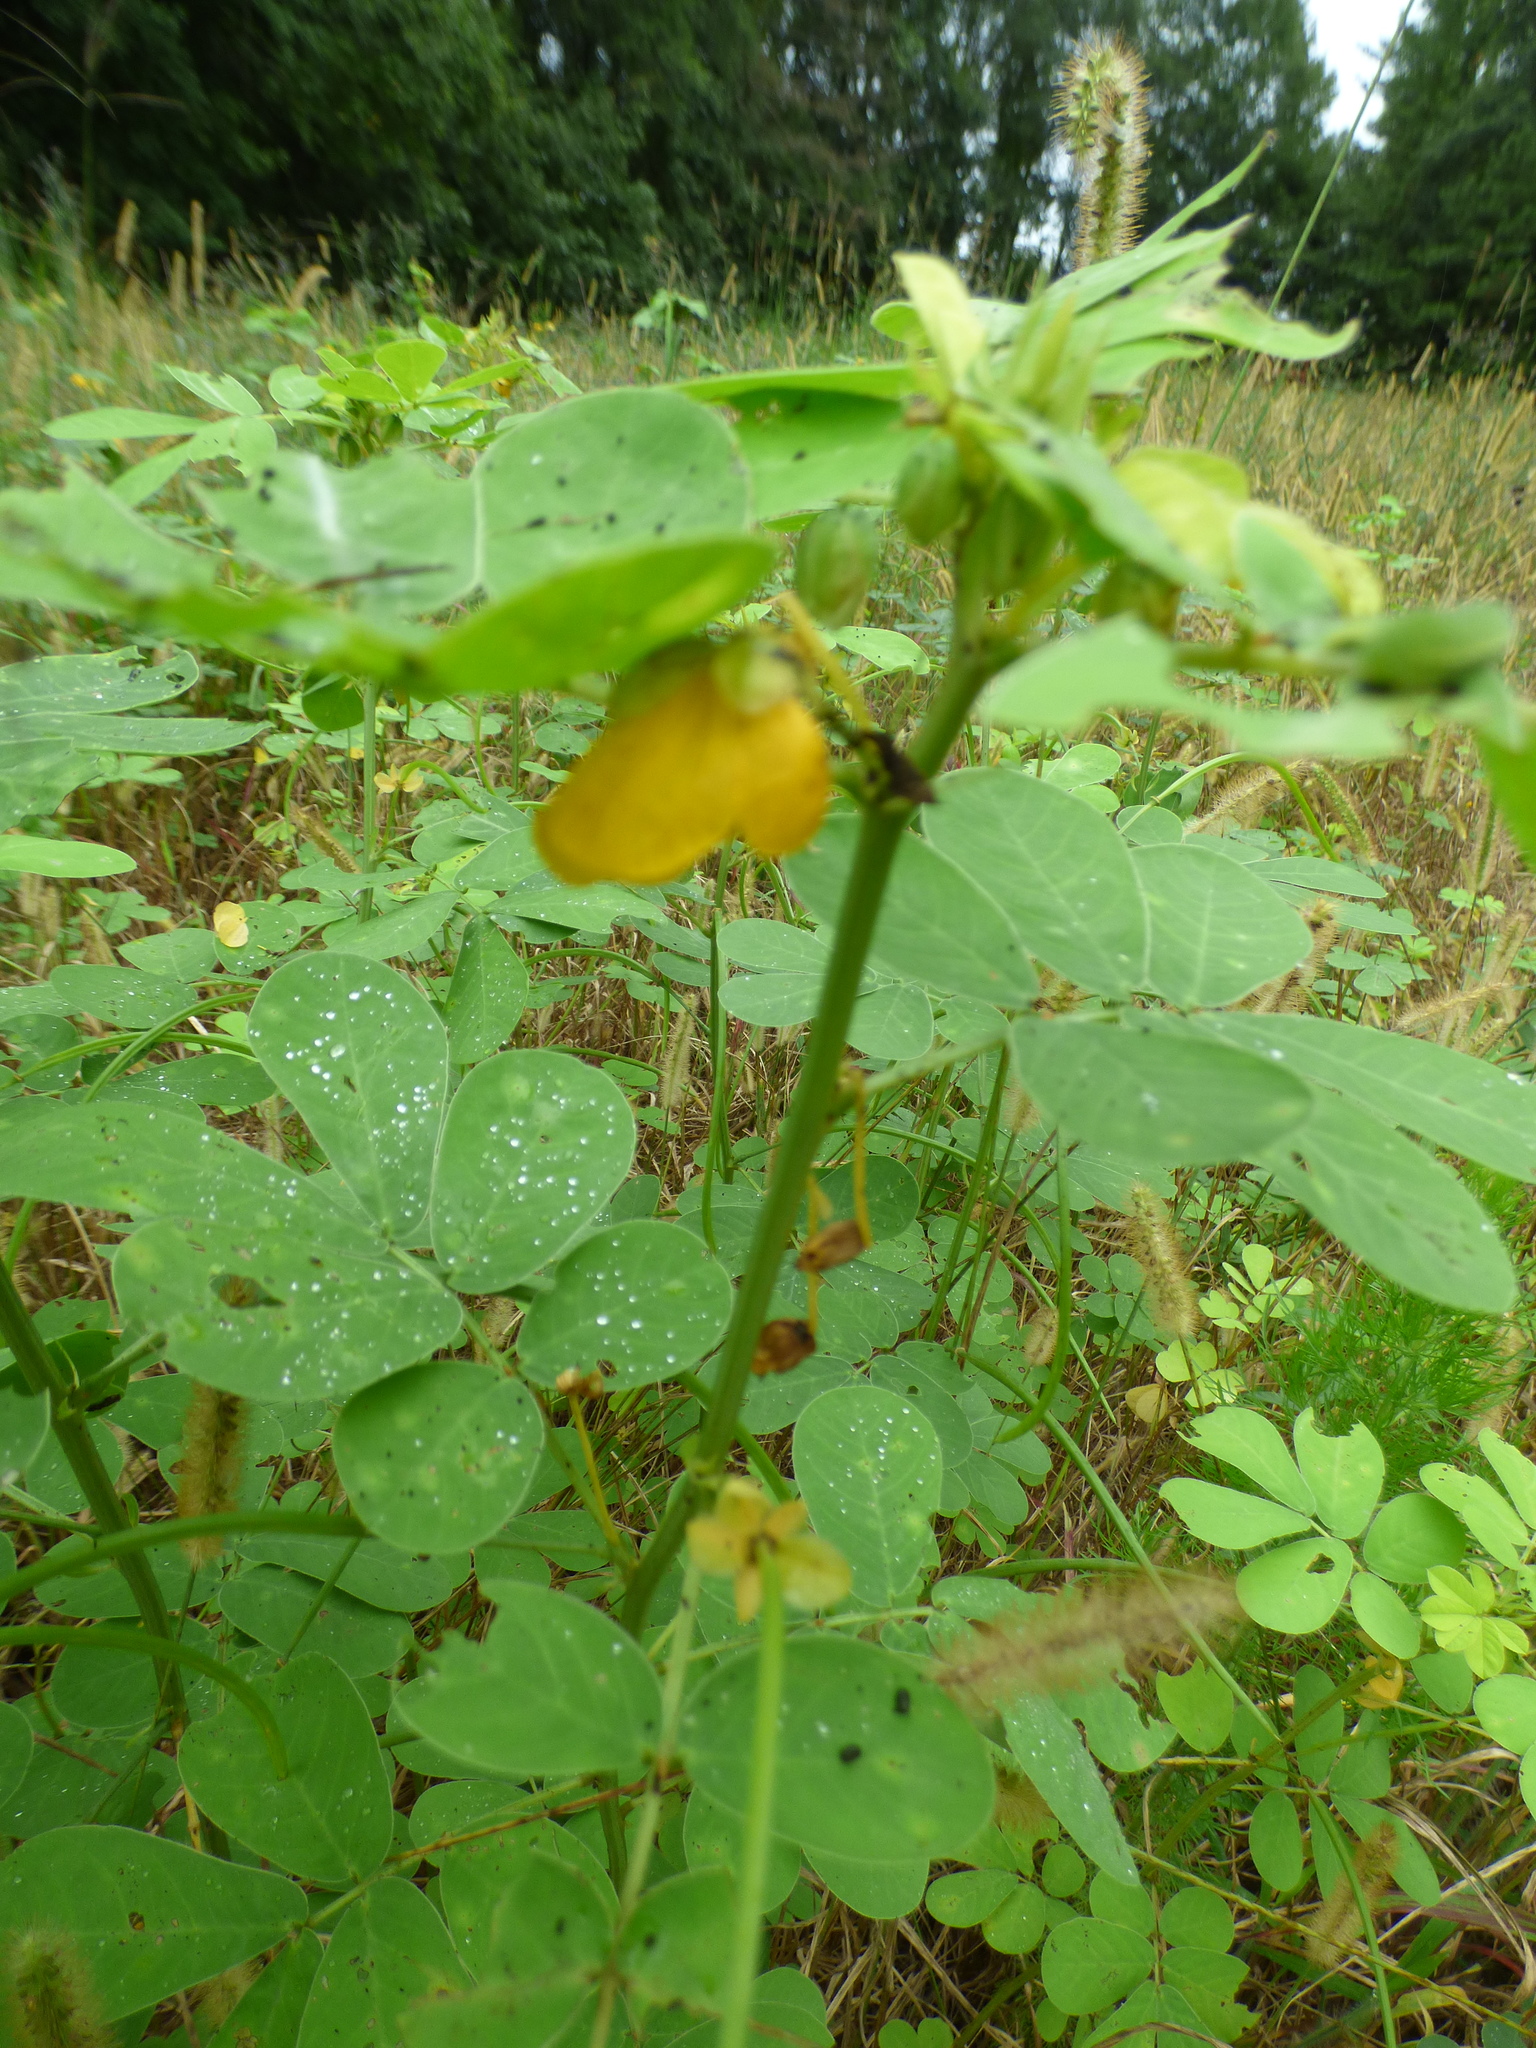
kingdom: Plantae
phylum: Tracheophyta
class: Magnoliopsida
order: Fabales
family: Fabaceae
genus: Senna
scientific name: Senna obtusifolia
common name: Java-bean
